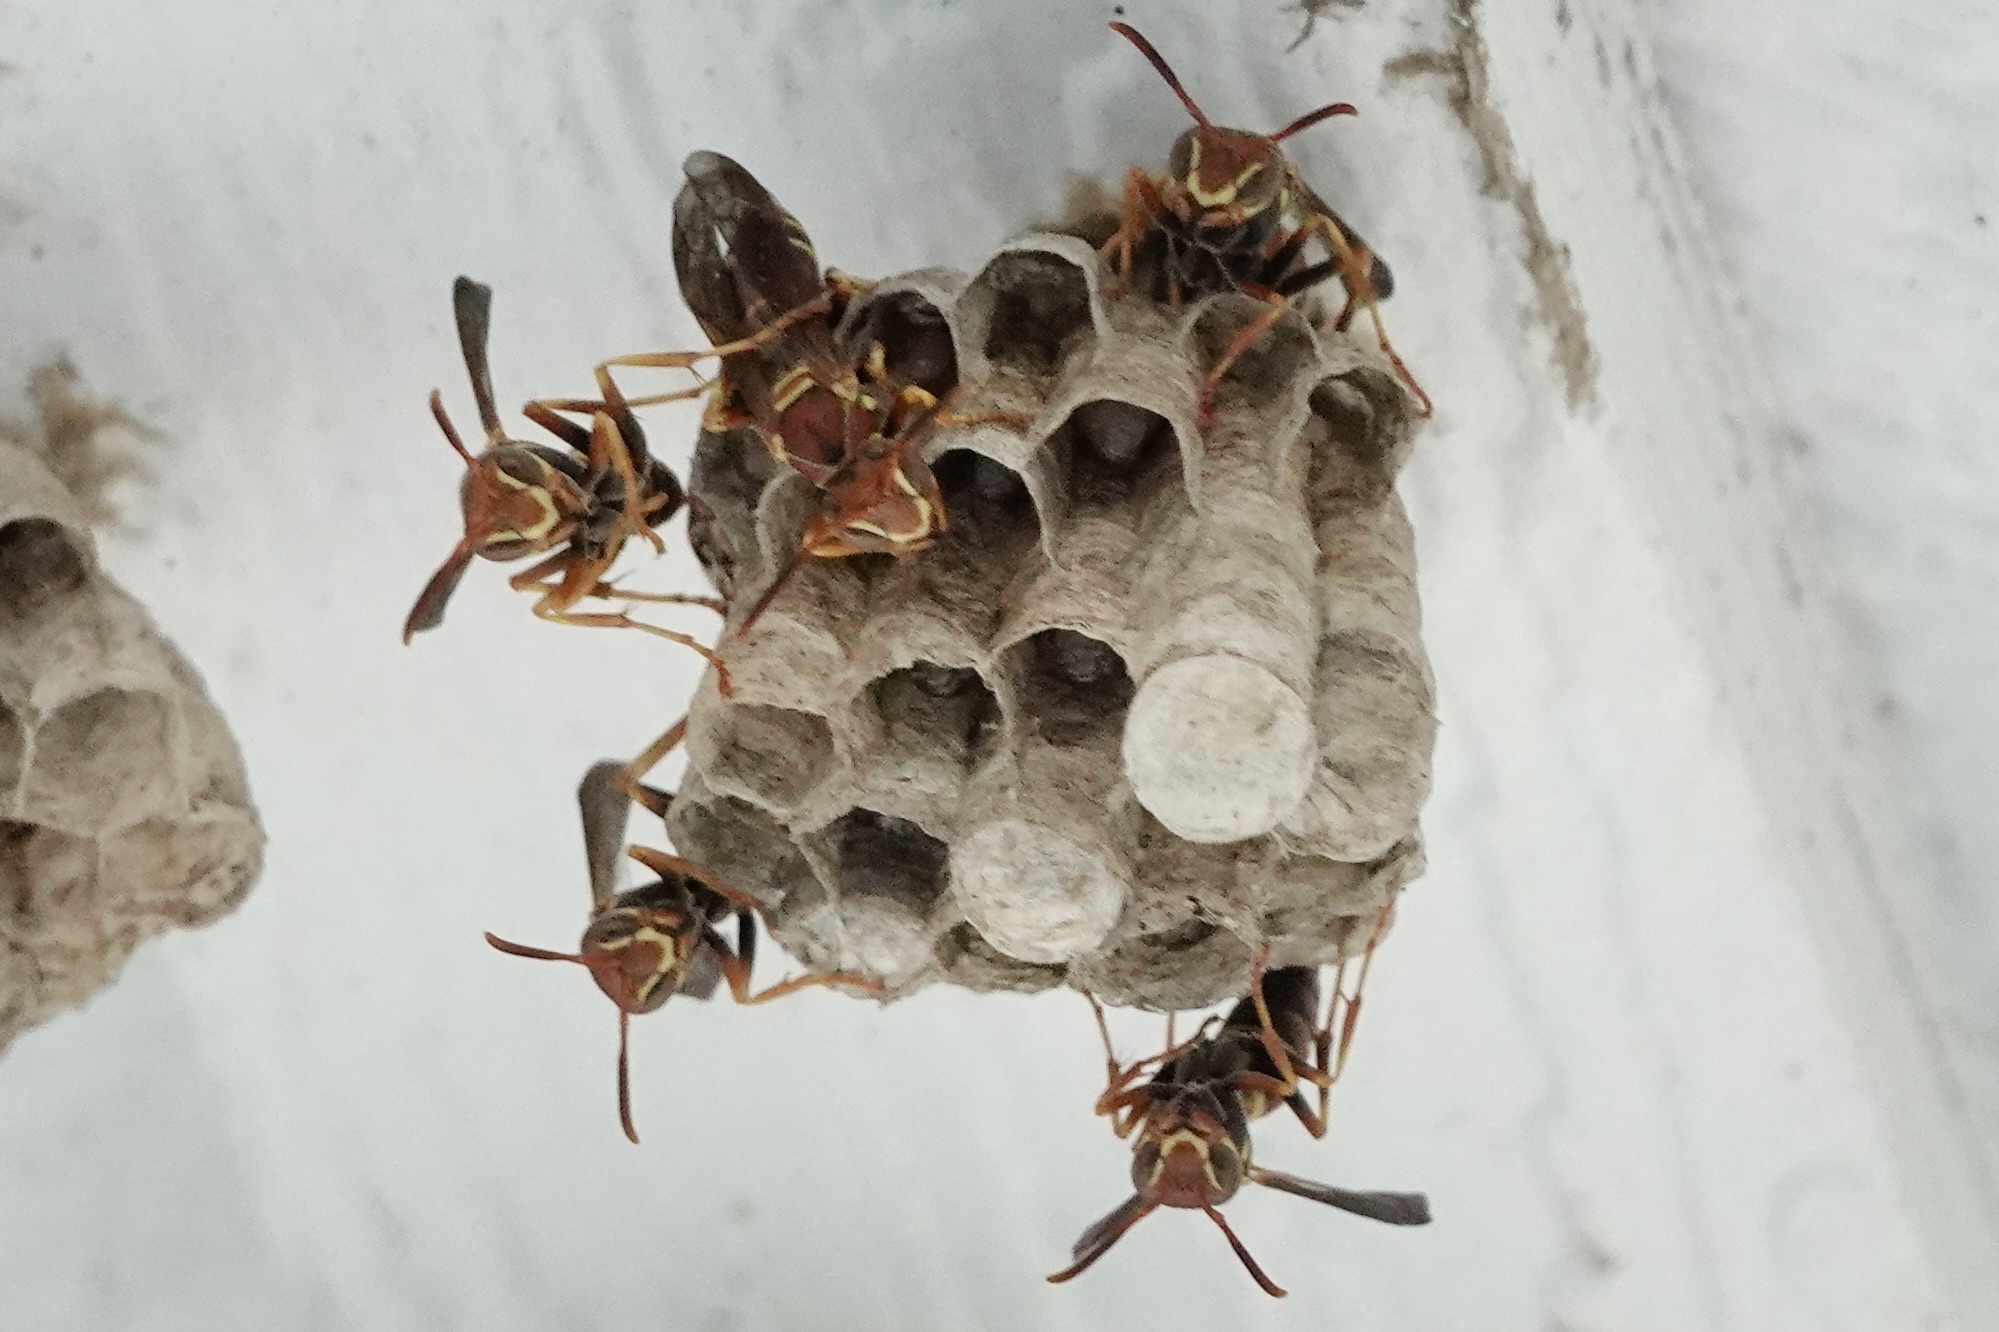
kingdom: Animalia
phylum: Arthropoda
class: Insecta
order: Hymenoptera
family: Eumenidae
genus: Polistes
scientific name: Polistes dorsalis
